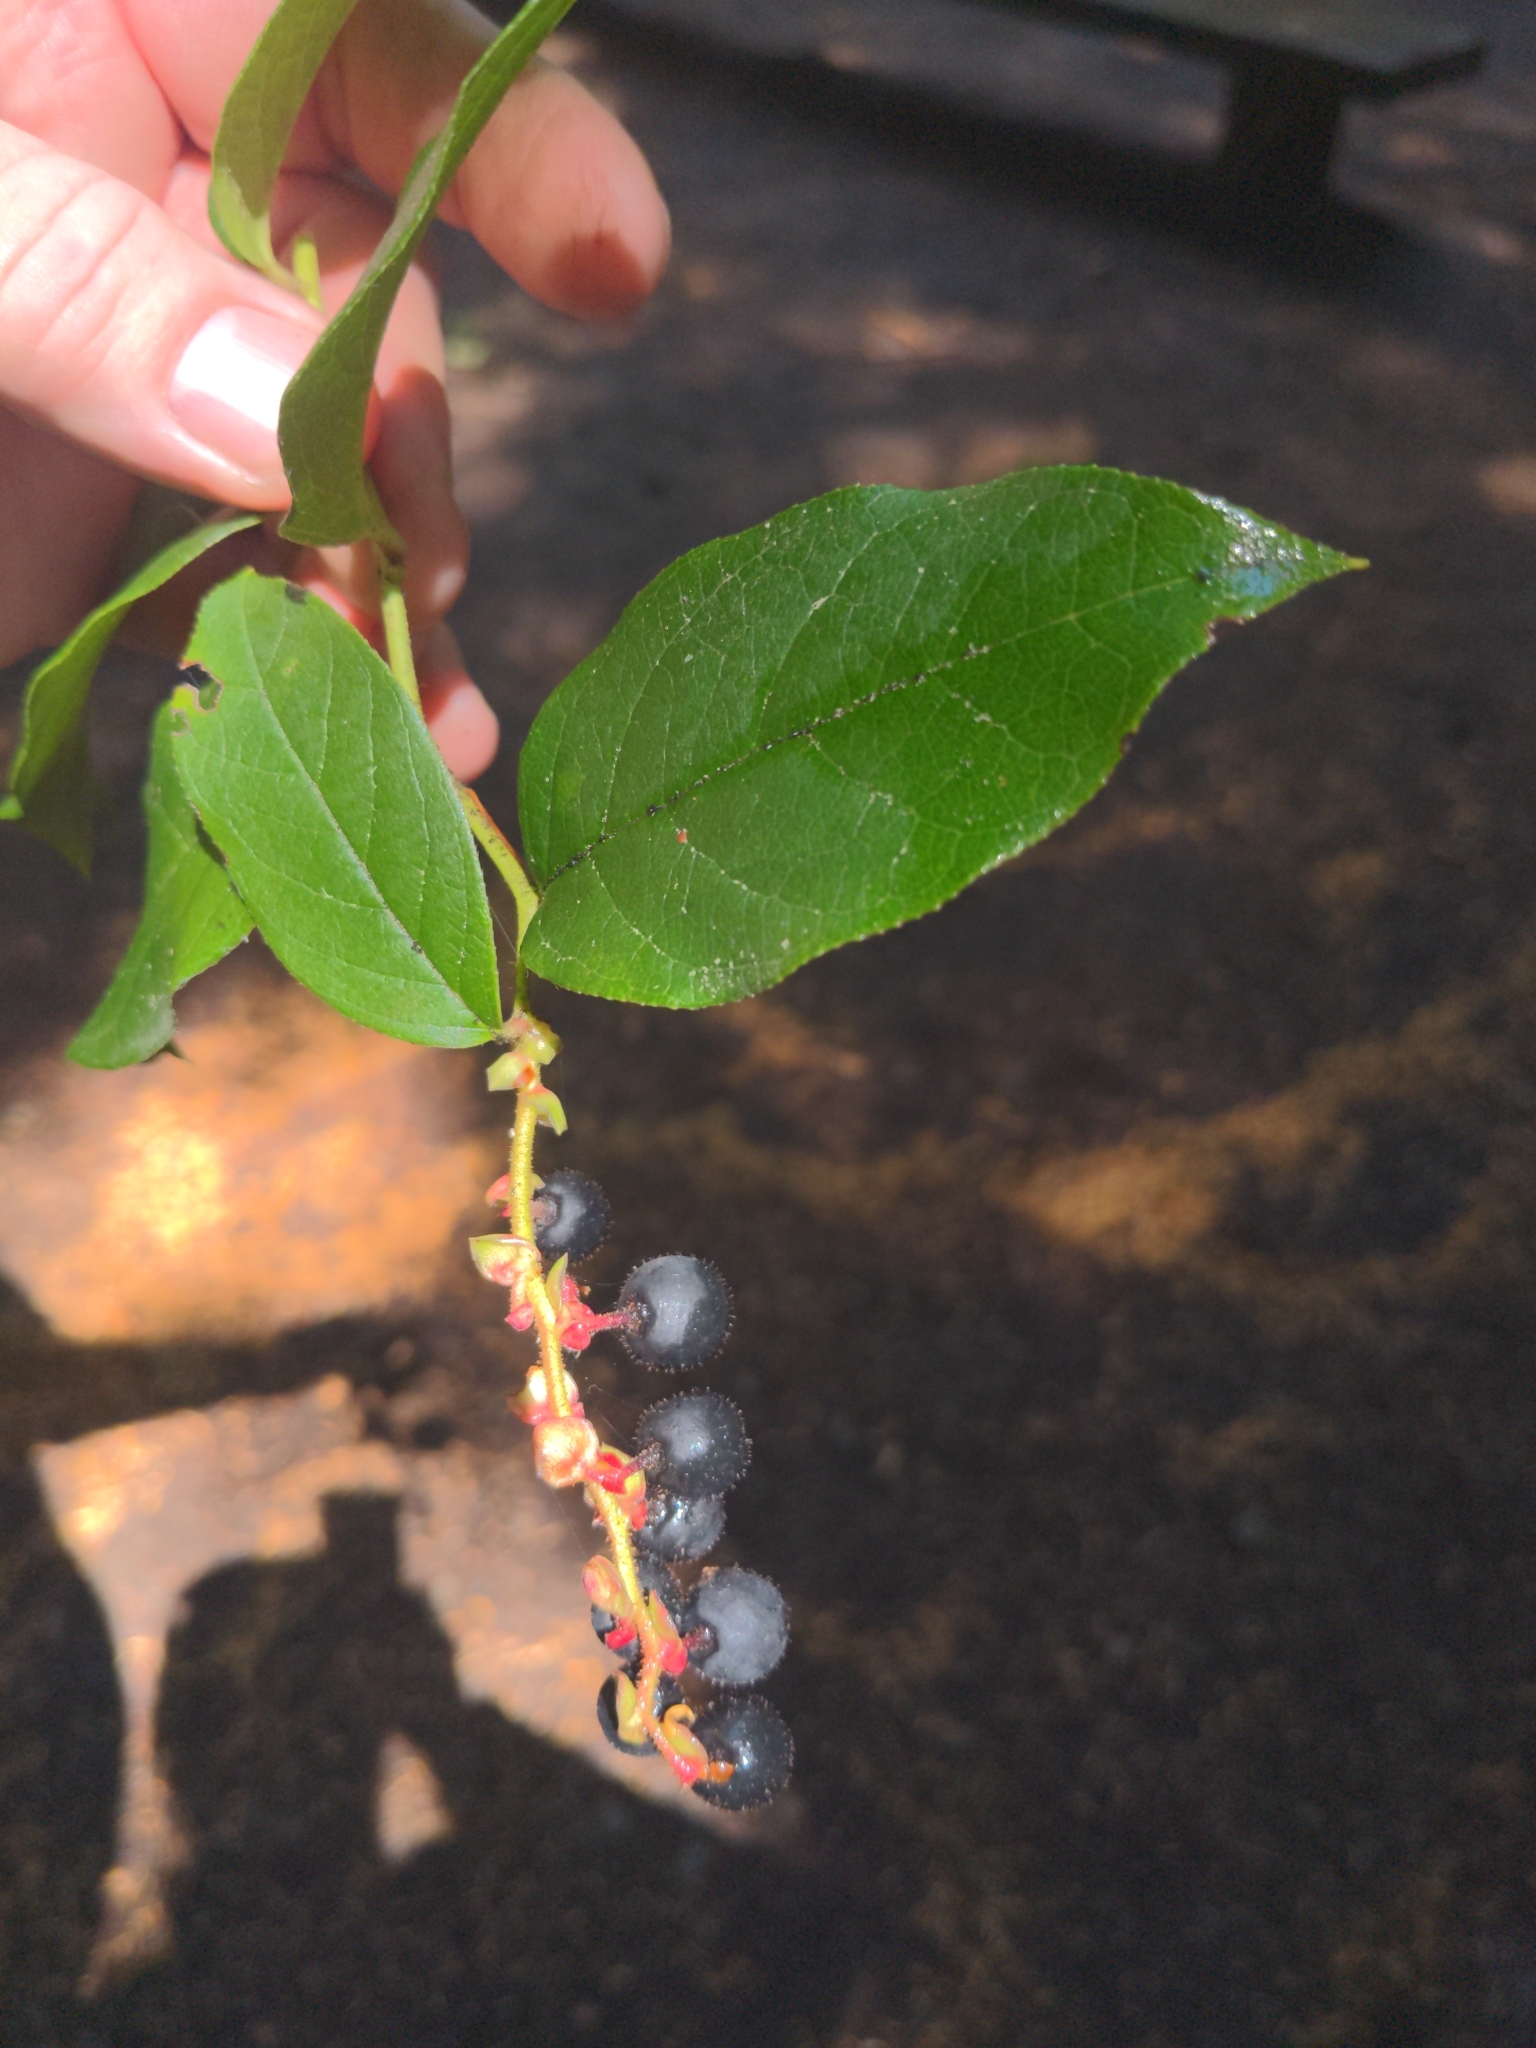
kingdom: Plantae
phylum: Tracheophyta
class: Magnoliopsida
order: Ericales
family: Ericaceae
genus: Gaultheria
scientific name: Gaultheria shallon
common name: Shallon
